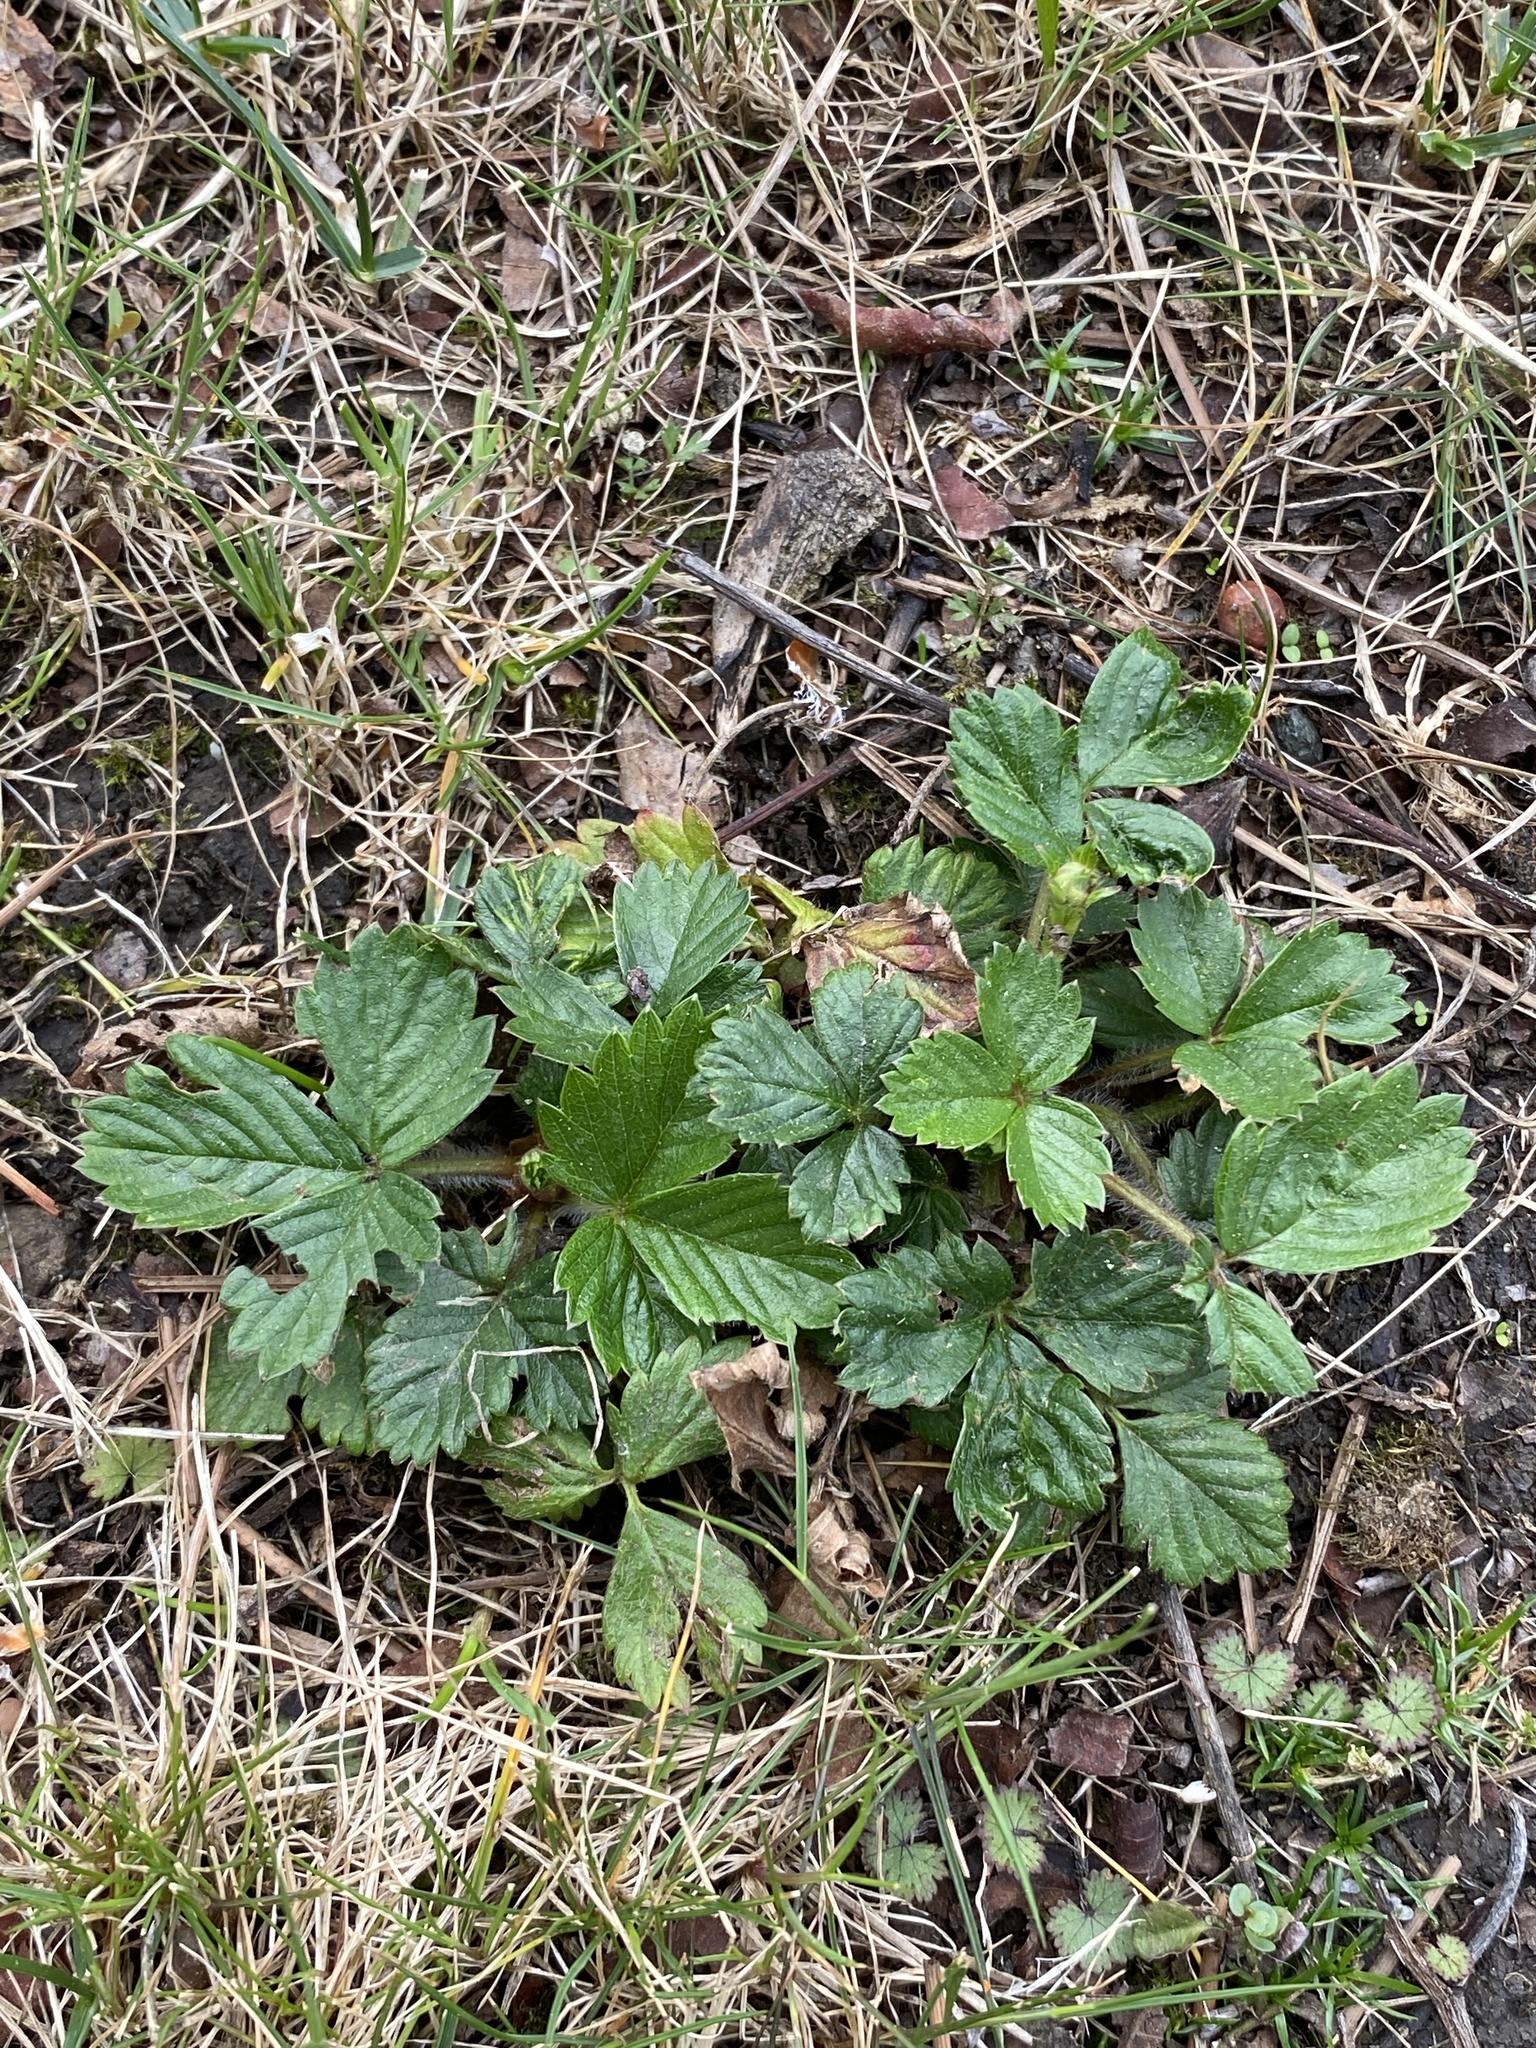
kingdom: Plantae
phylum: Tracheophyta
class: Magnoliopsida
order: Rosales
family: Rosaceae
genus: Fragaria
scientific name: Fragaria vesca
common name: Wild strawberry
